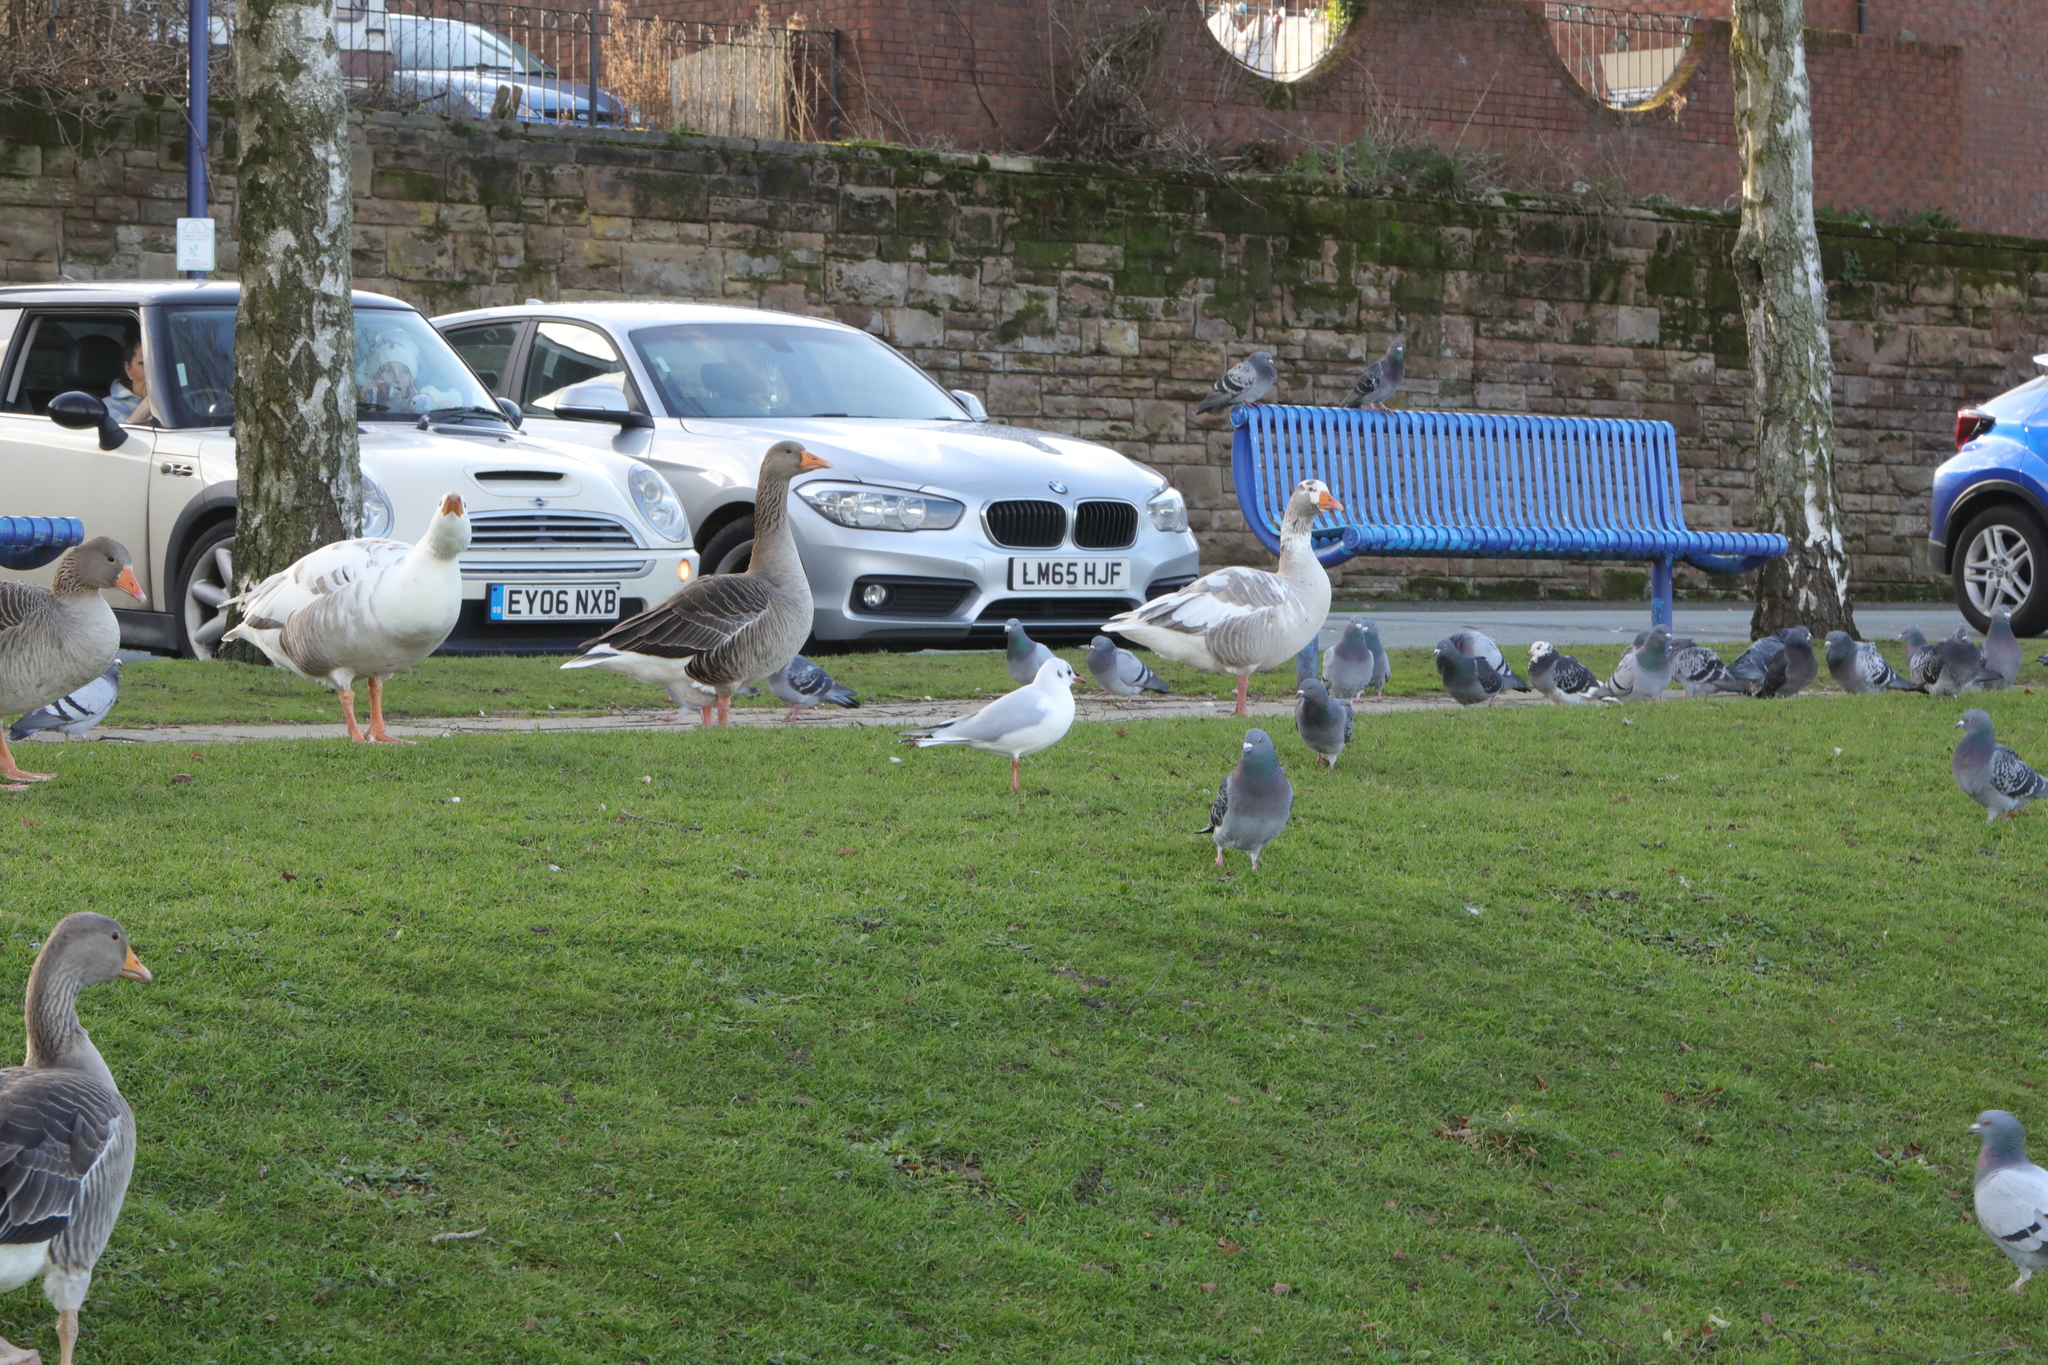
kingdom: Animalia
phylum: Chordata
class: Aves
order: Charadriiformes
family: Laridae
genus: Chroicocephalus
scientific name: Chroicocephalus ridibundus
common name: Black-headed gull
